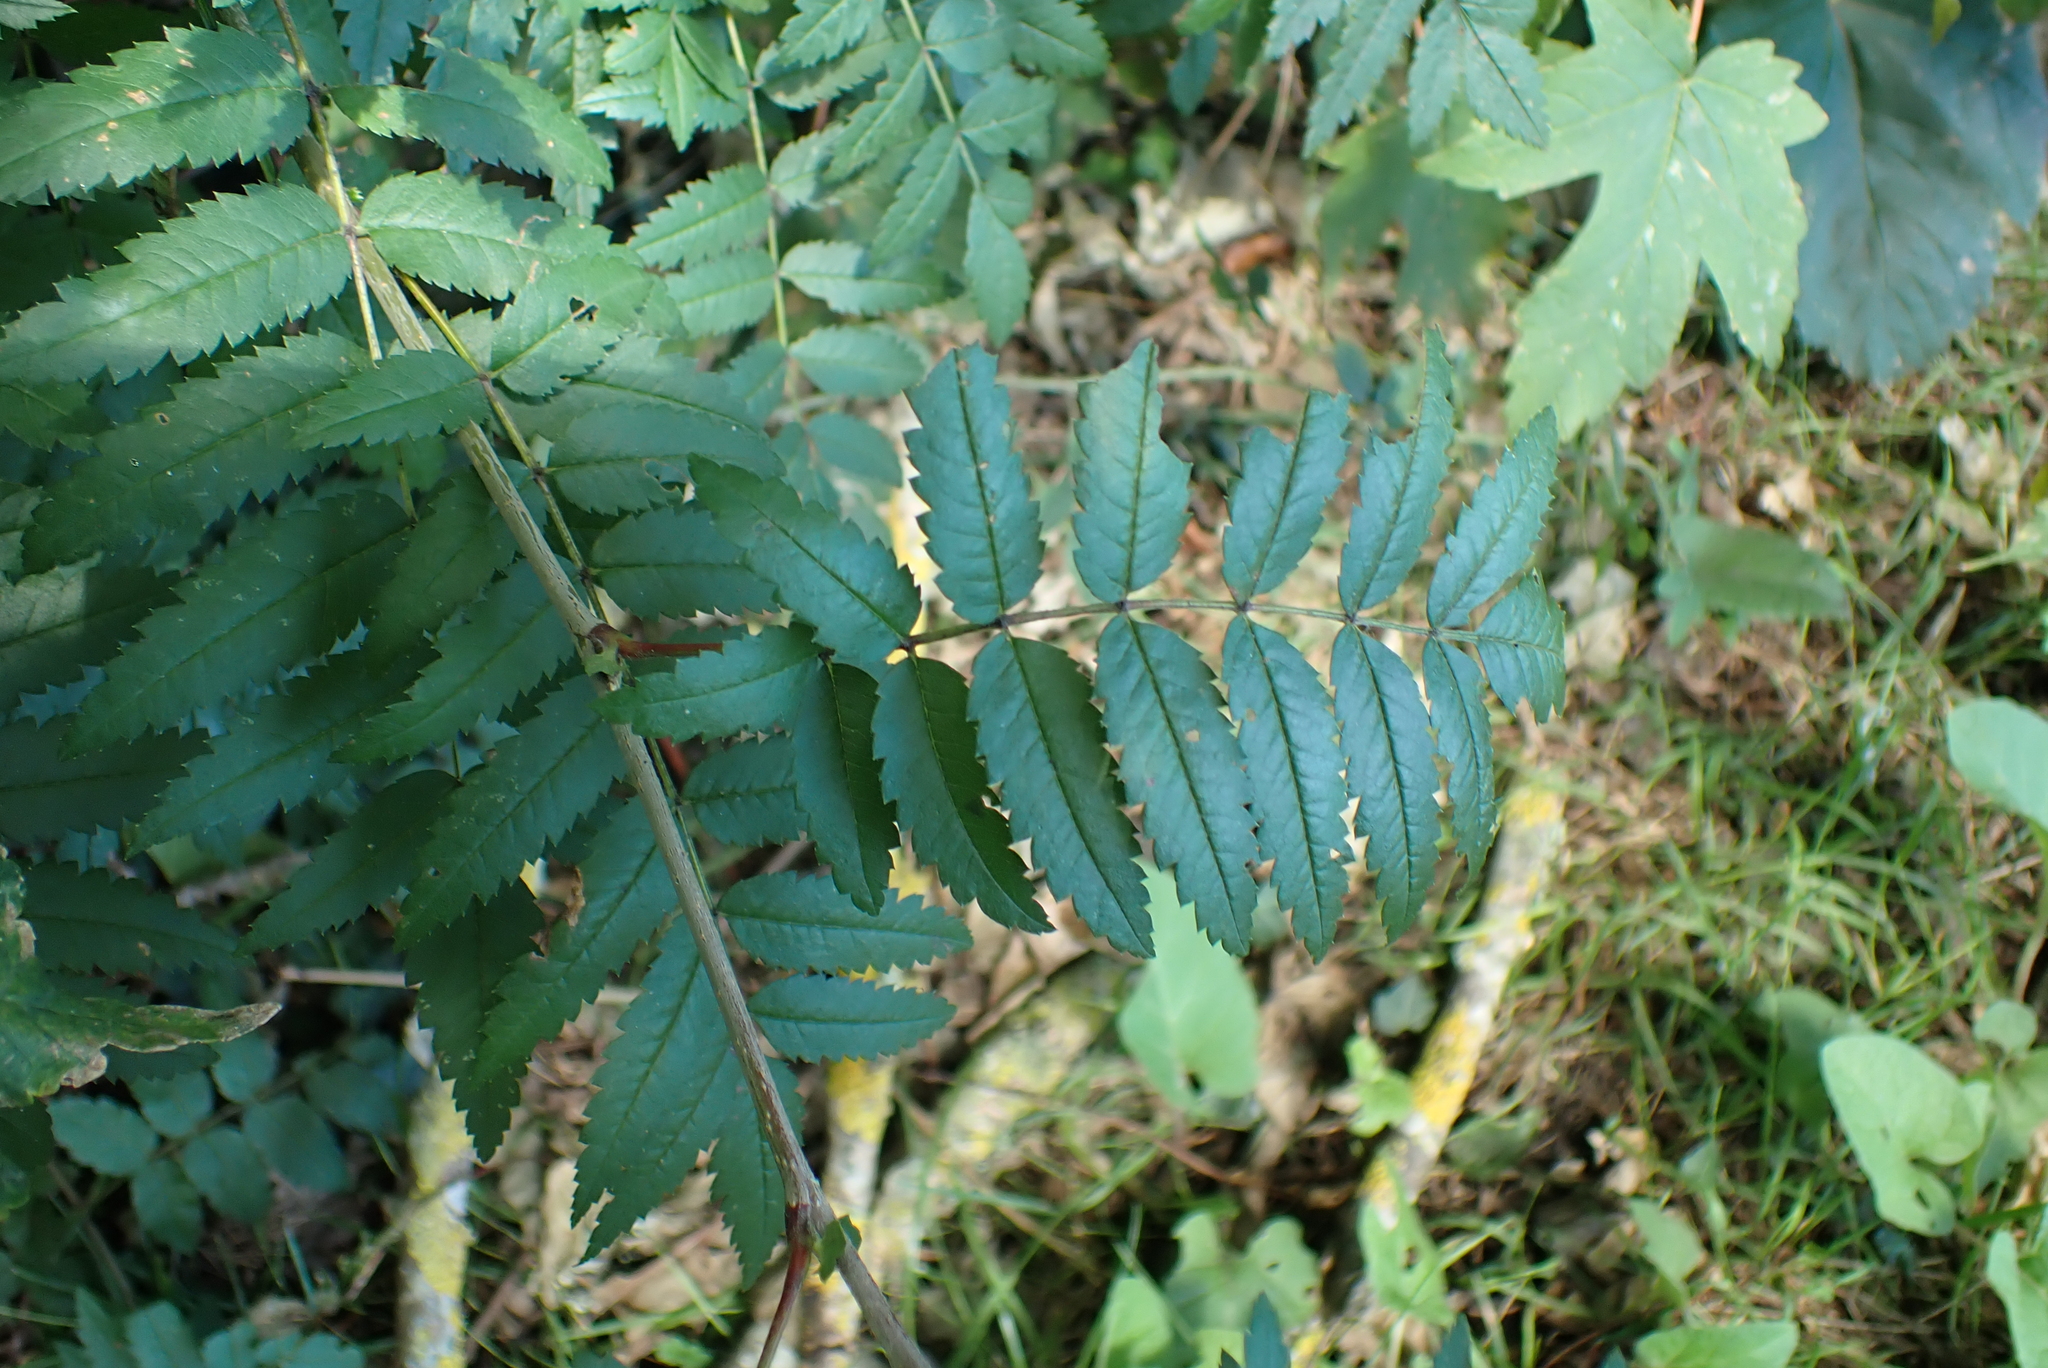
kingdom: Plantae
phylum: Tracheophyta
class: Magnoliopsida
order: Rosales
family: Rosaceae
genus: Sorbus
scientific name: Sorbus aucuparia
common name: Rowan
